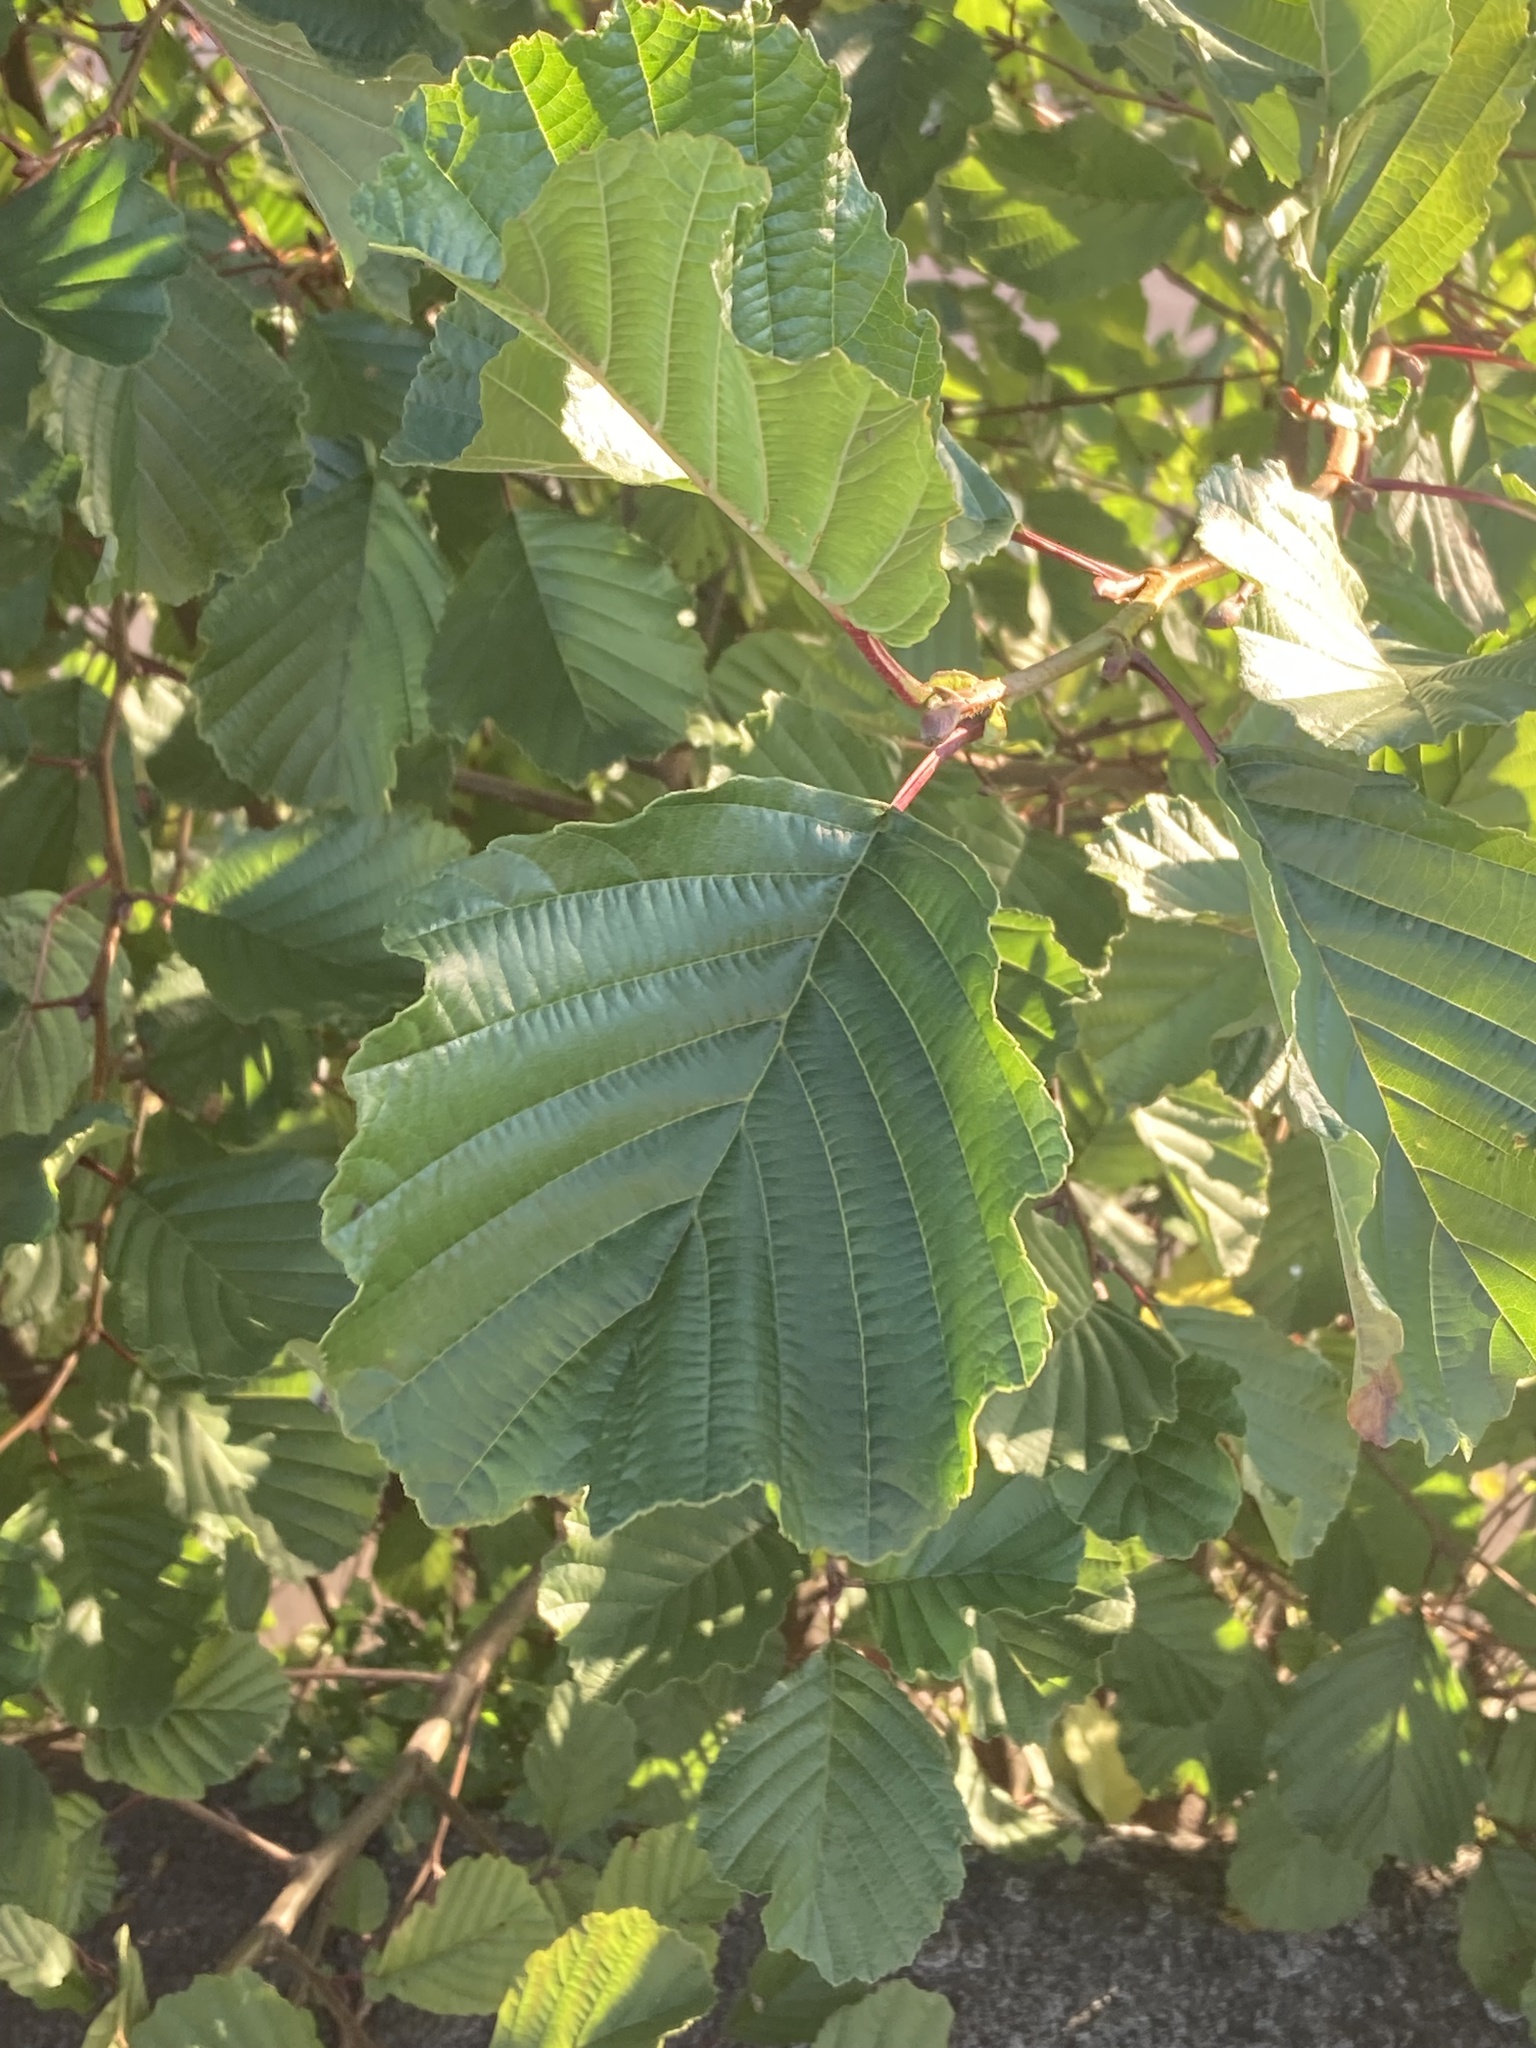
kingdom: Plantae
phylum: Tracheophyta
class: Magnoliopsida
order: Fagales
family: Betulaceae
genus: Alnus
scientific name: Alnus glutinosa
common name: Black alder
